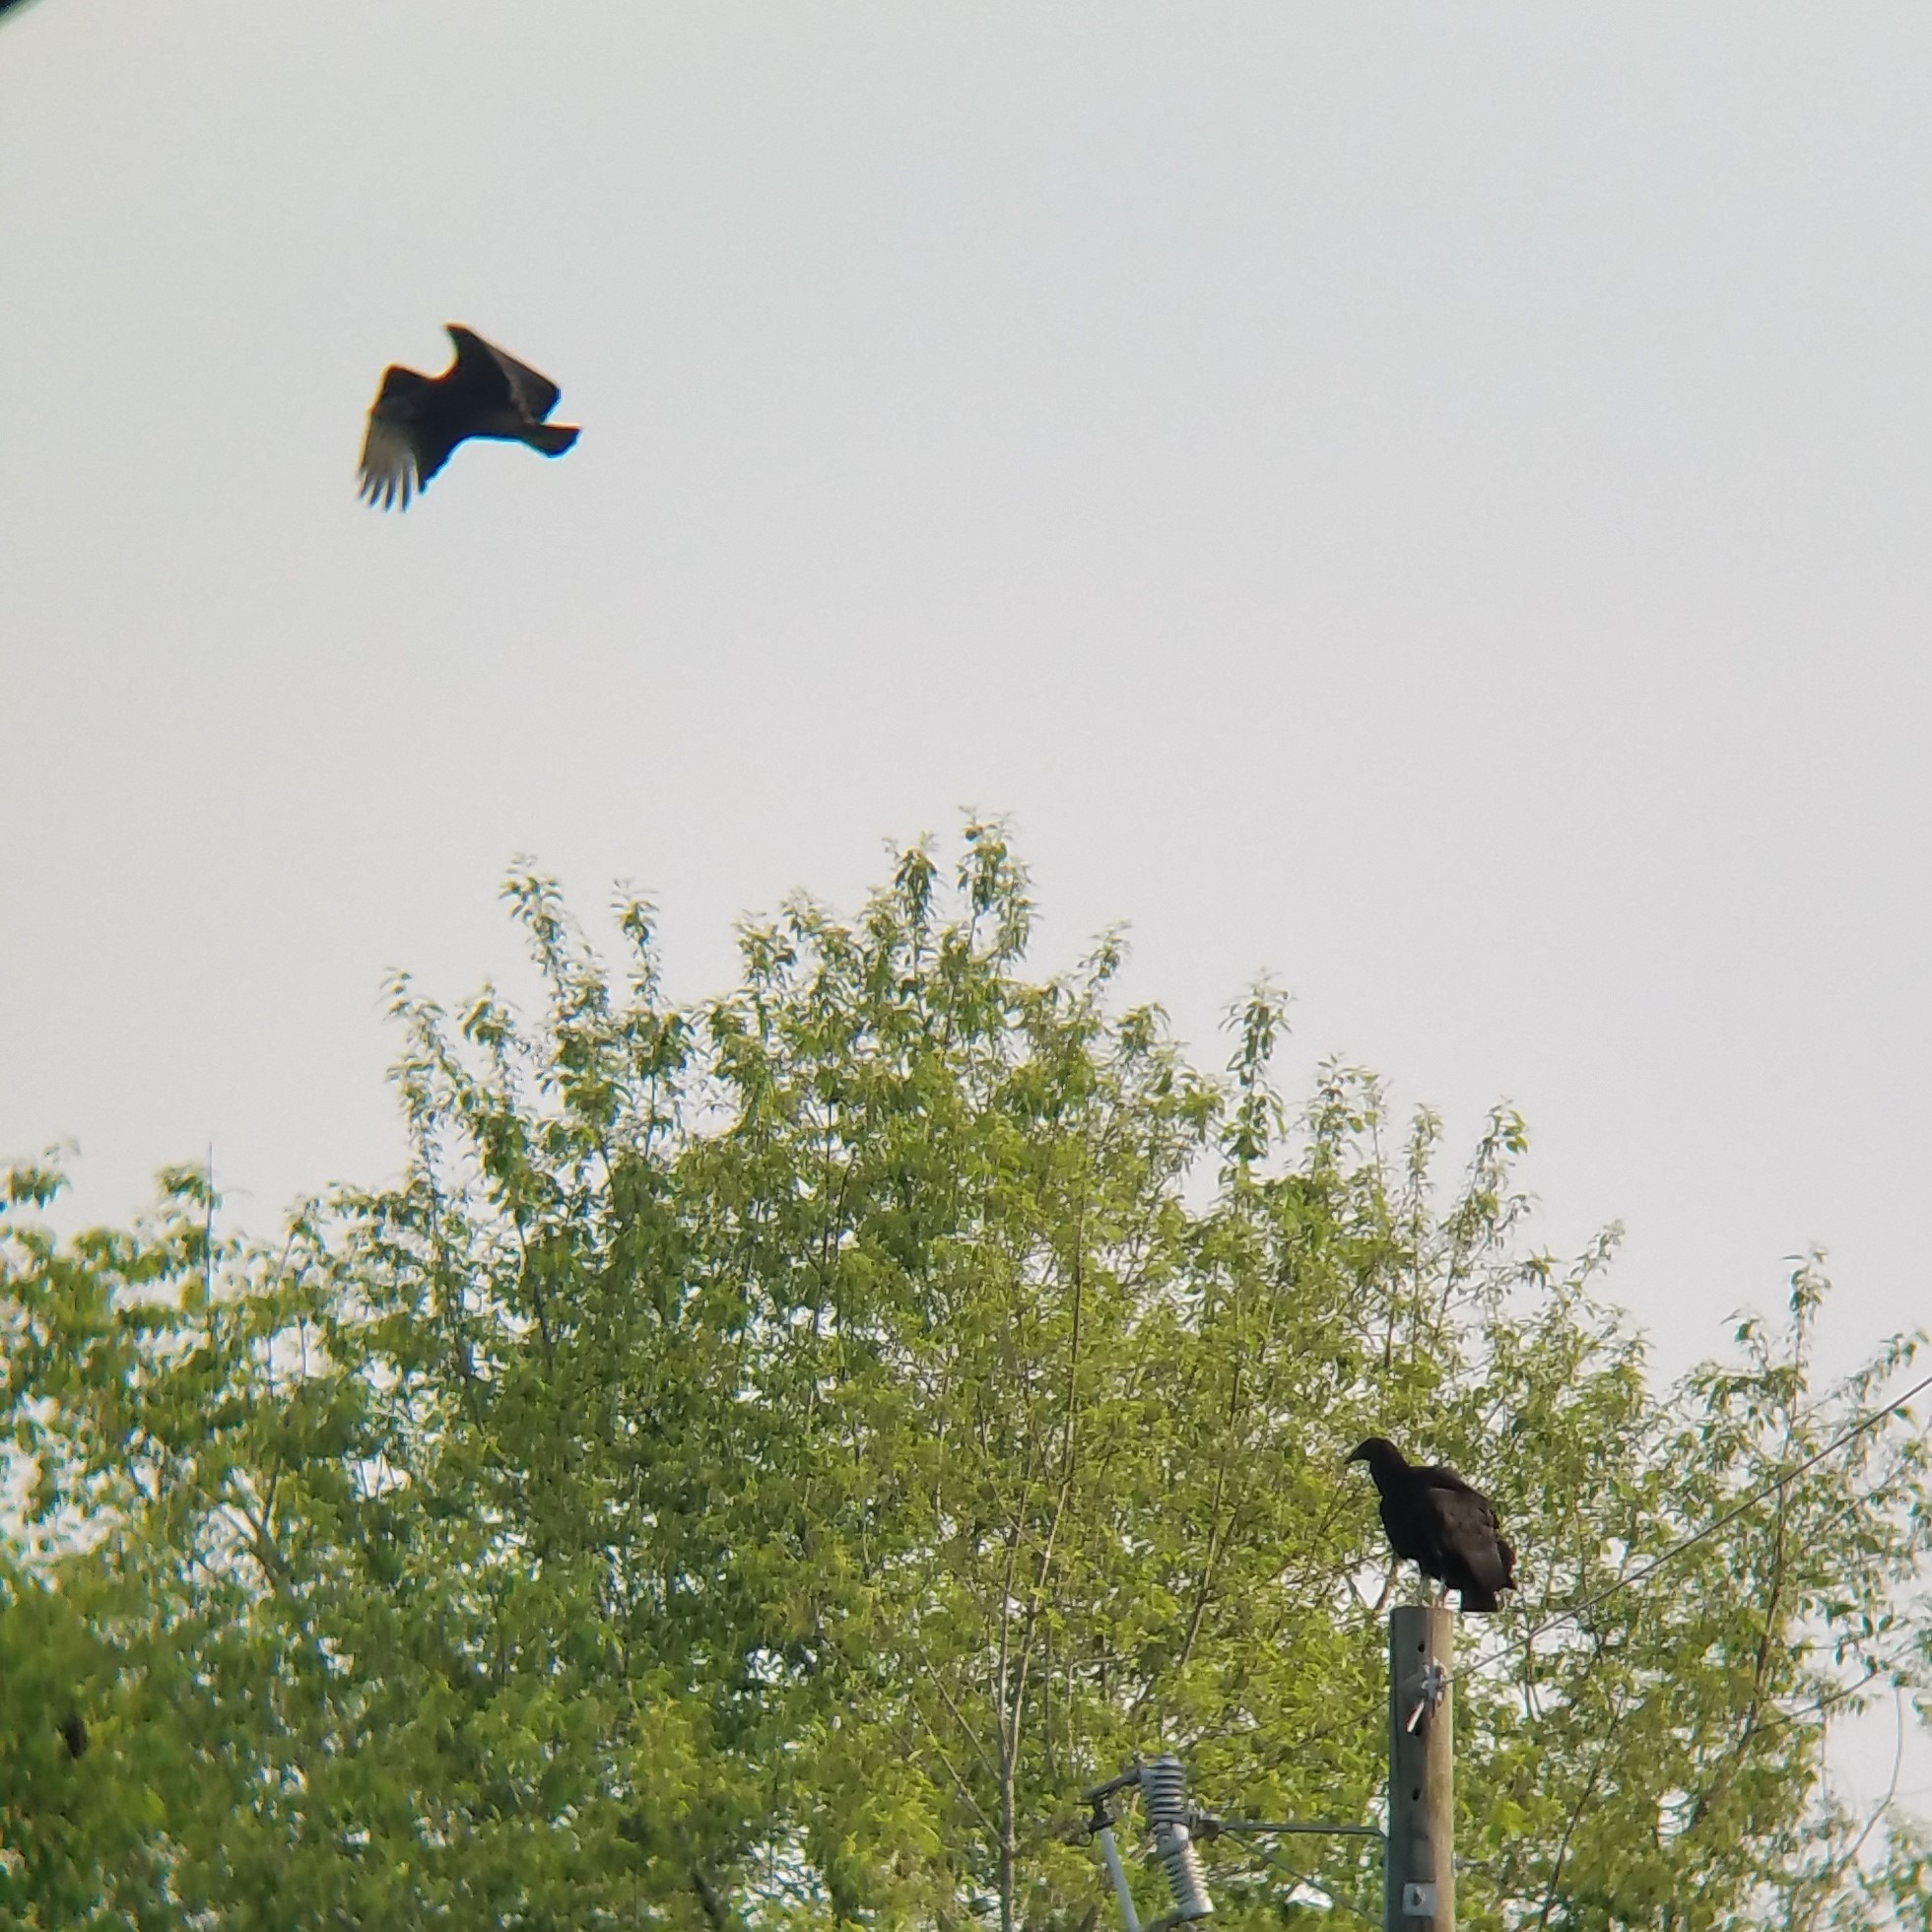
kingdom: Animalia
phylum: Chordata
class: Aves
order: Accipitriformes
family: Cathartidae
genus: Coragyps
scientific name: Coragyps atratus
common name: Black vulture
